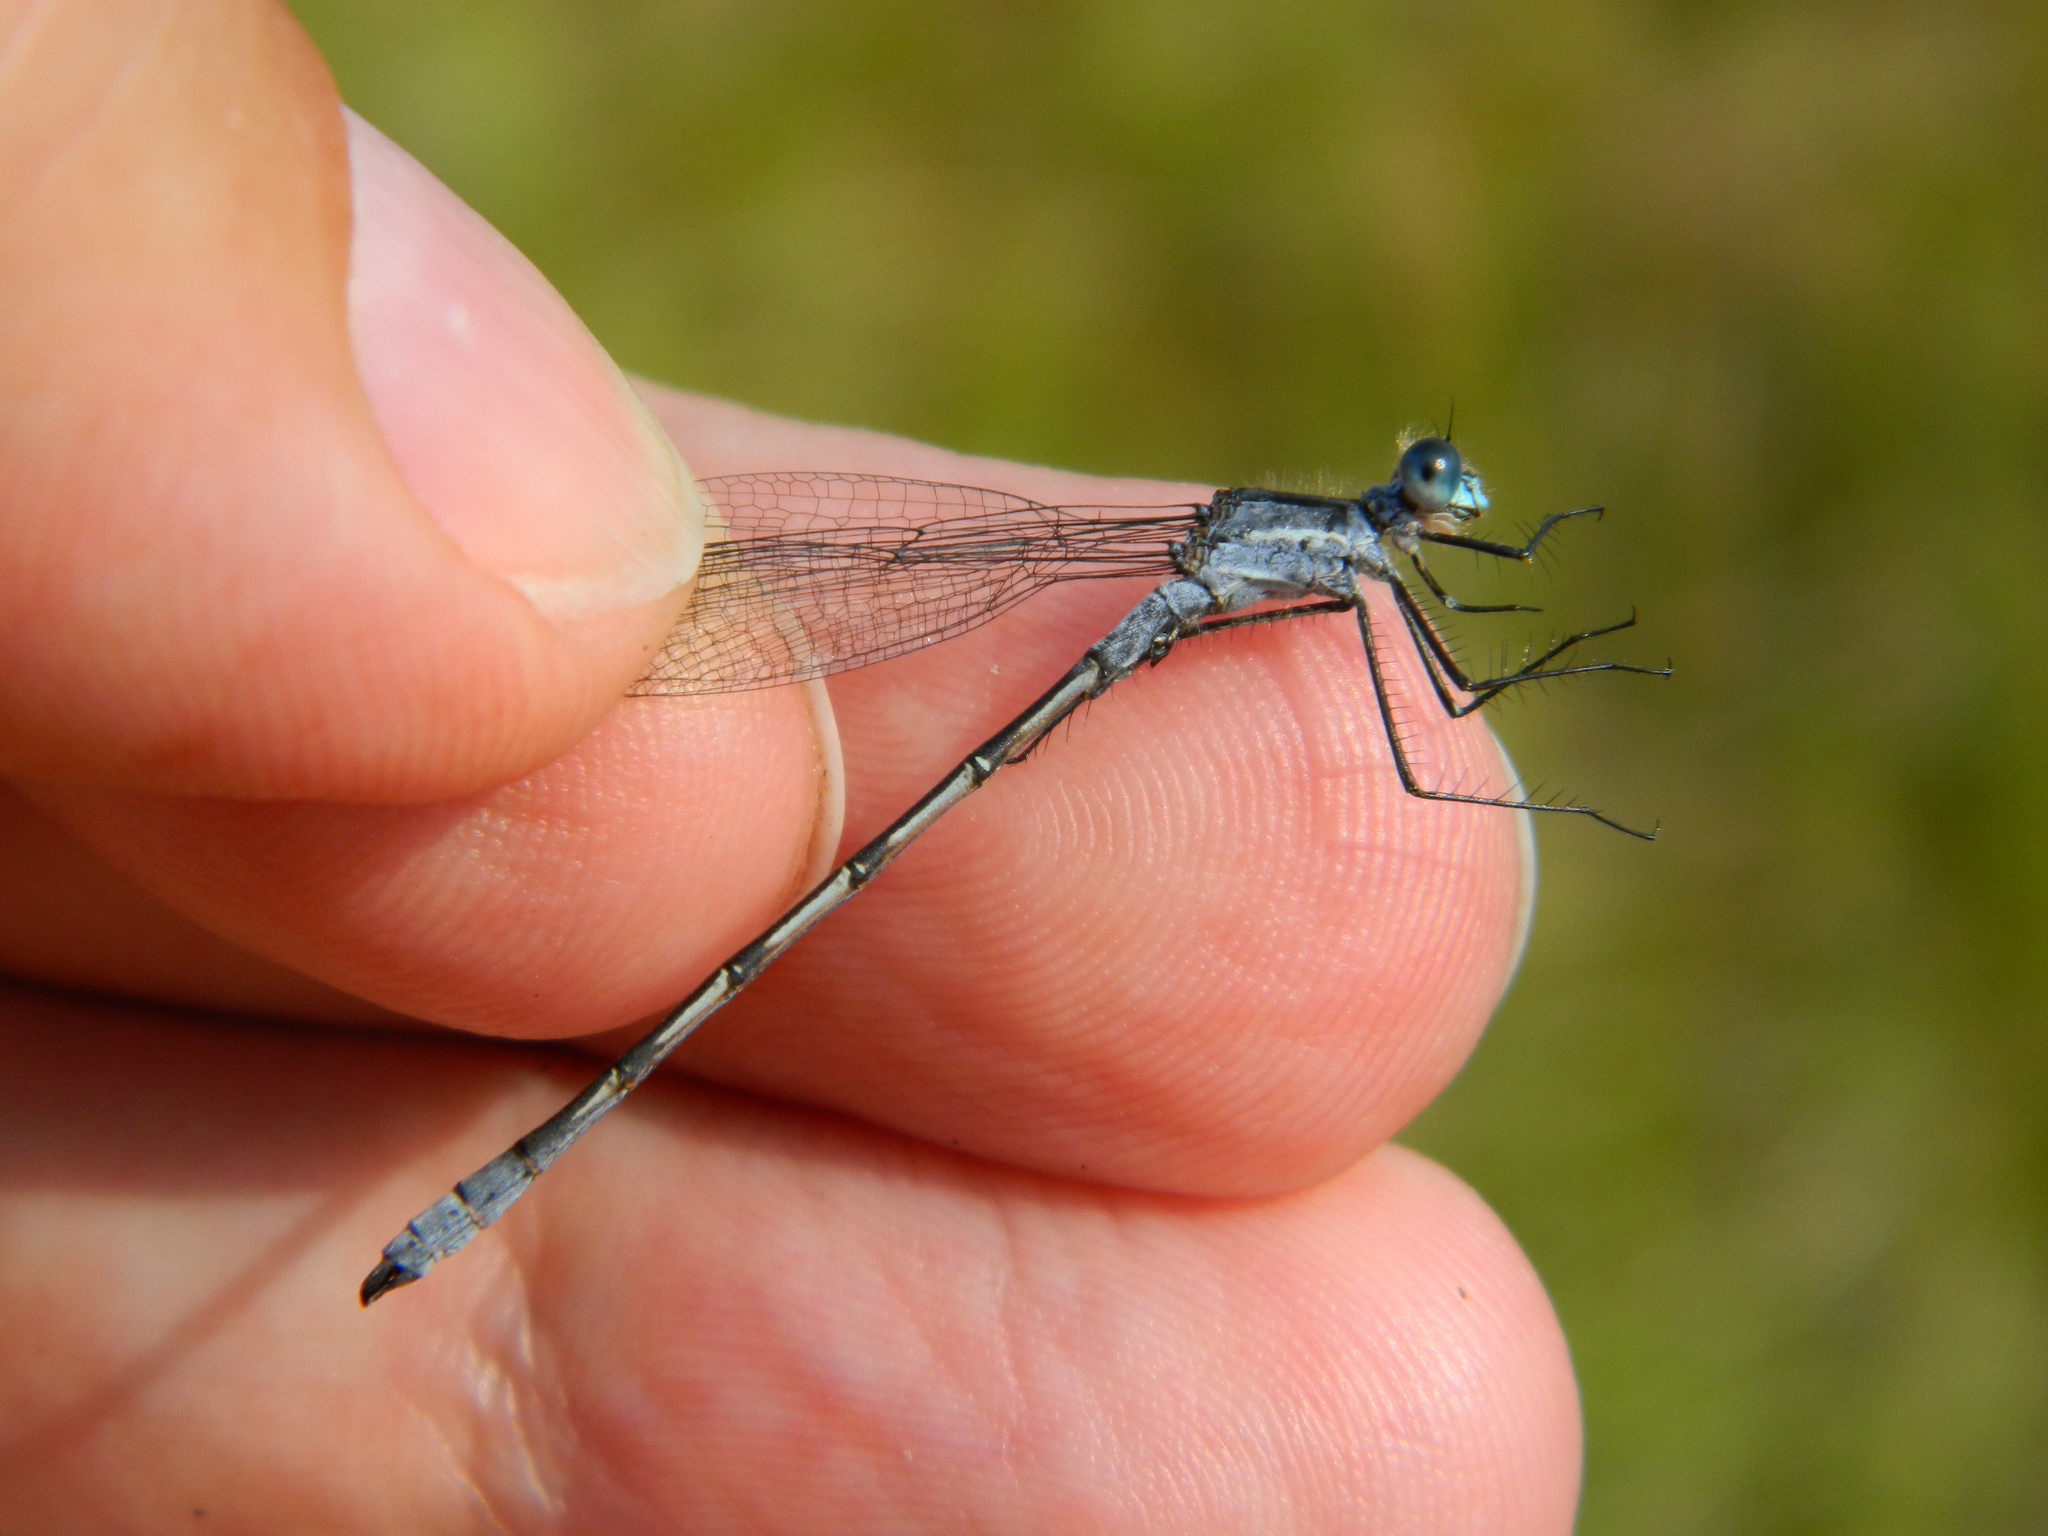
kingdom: Animalia
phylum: Arthropoda
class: Insecta
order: Odonata
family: Lestidae
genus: Lestes
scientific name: Lestes disjunctus
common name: Northern spreadwing
